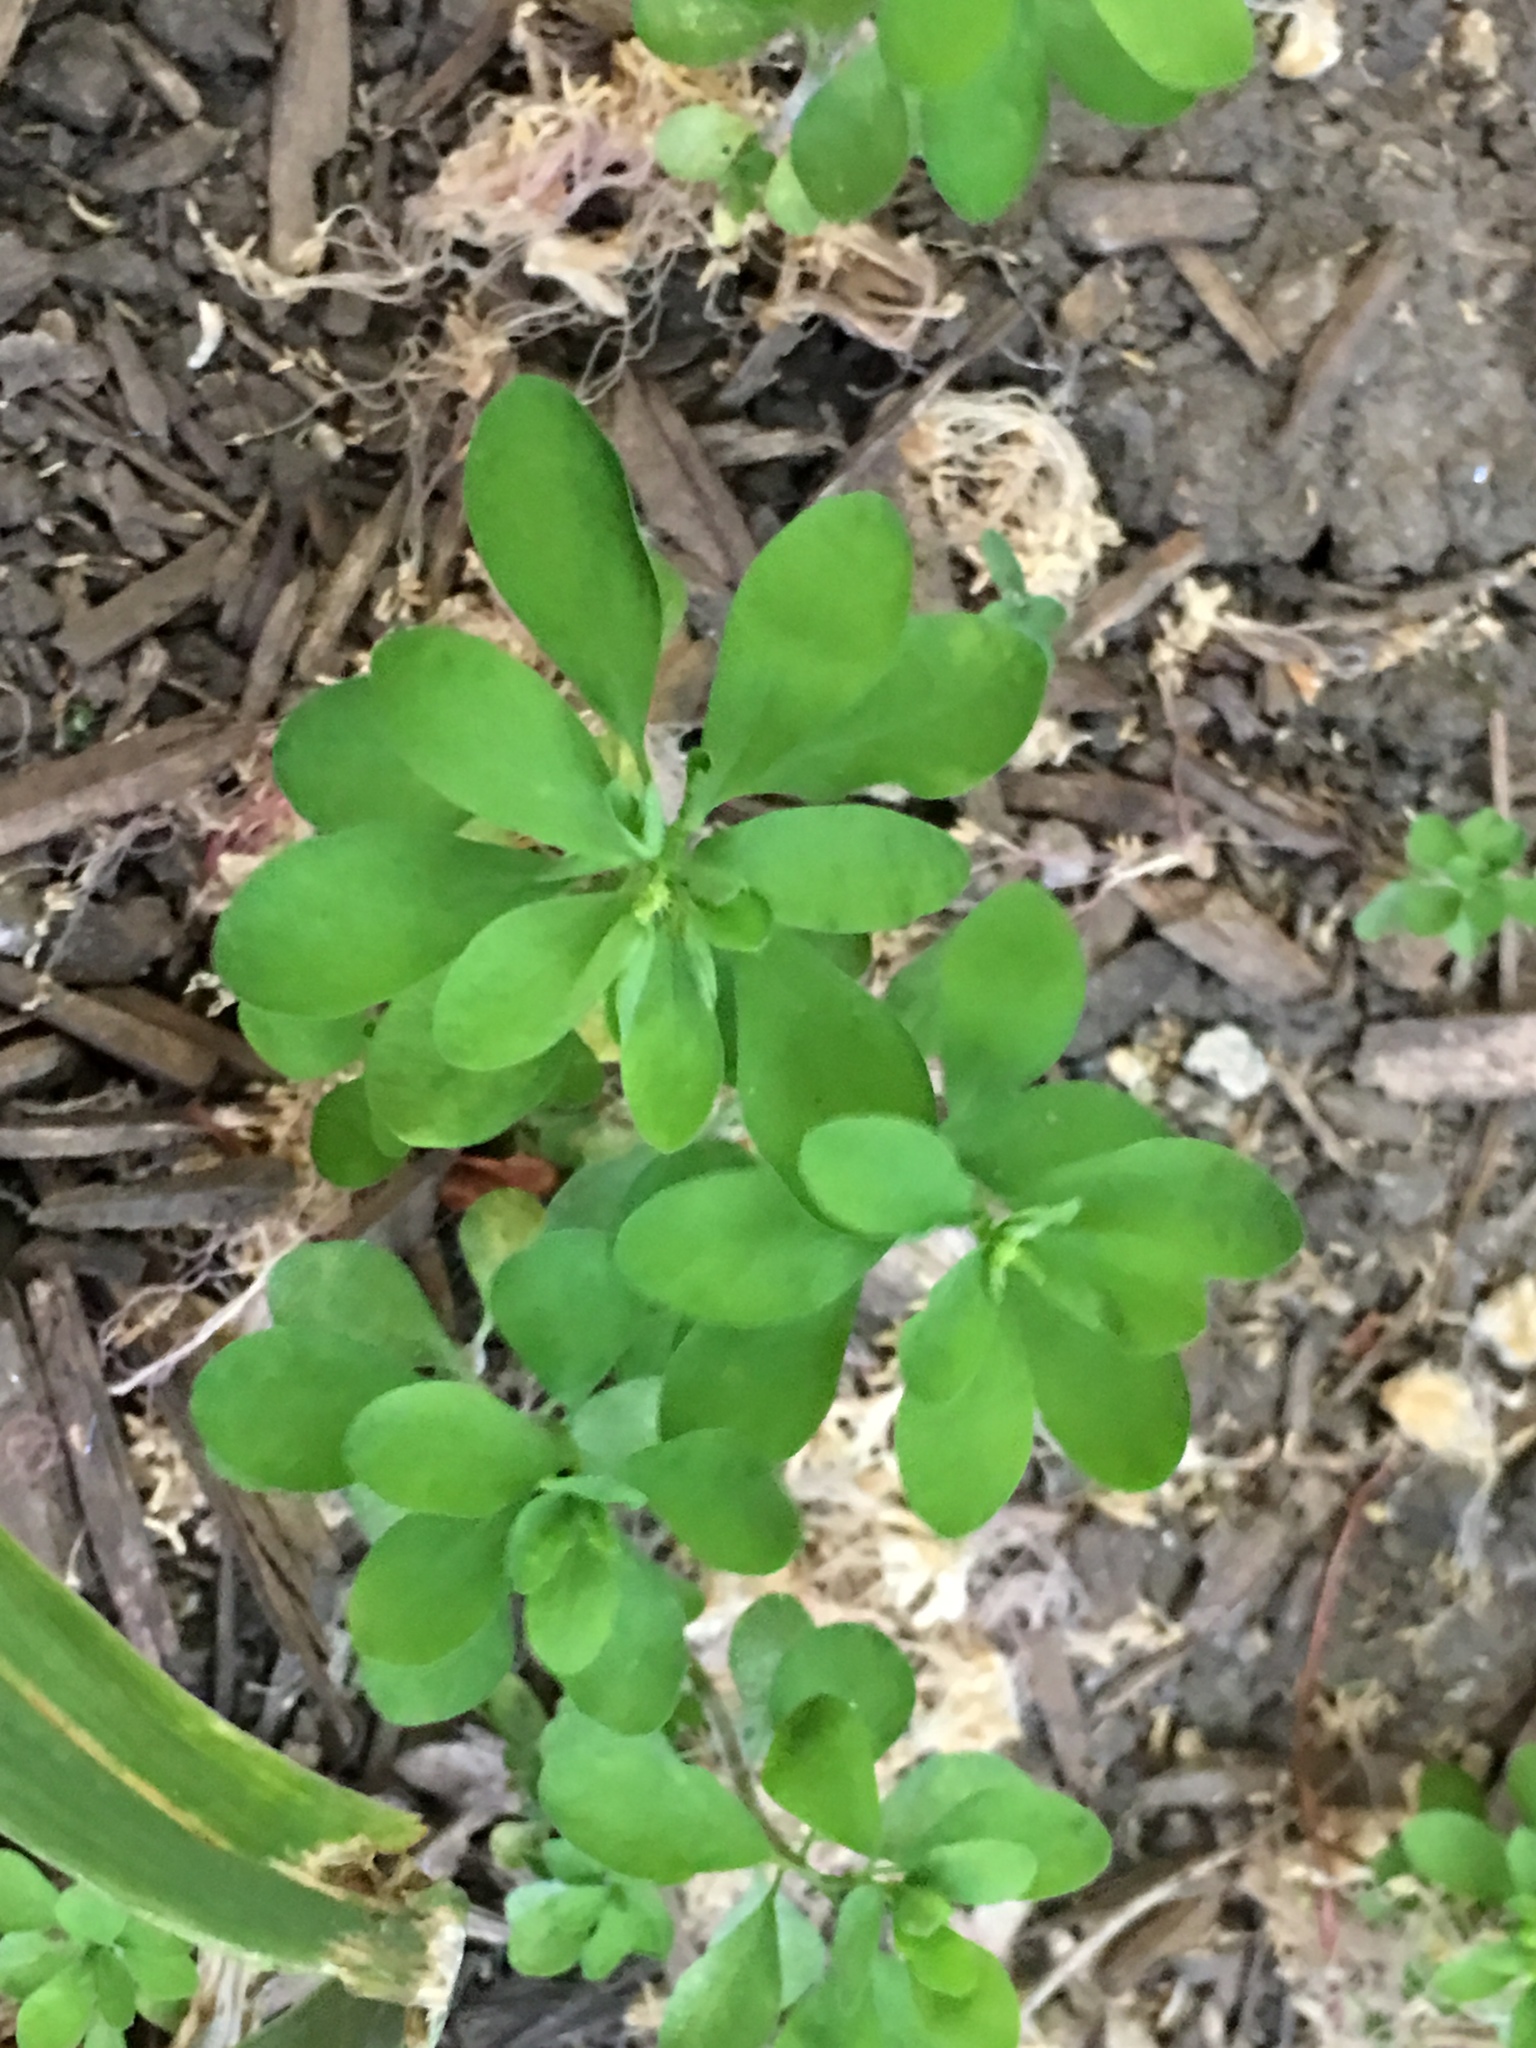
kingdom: Plantae
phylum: Tracheophyta
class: Magnoliopsida
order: Malpighiales
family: Euphorbiaceae
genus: Euphorbia
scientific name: Euphorbia peplus
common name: Petty spurge
